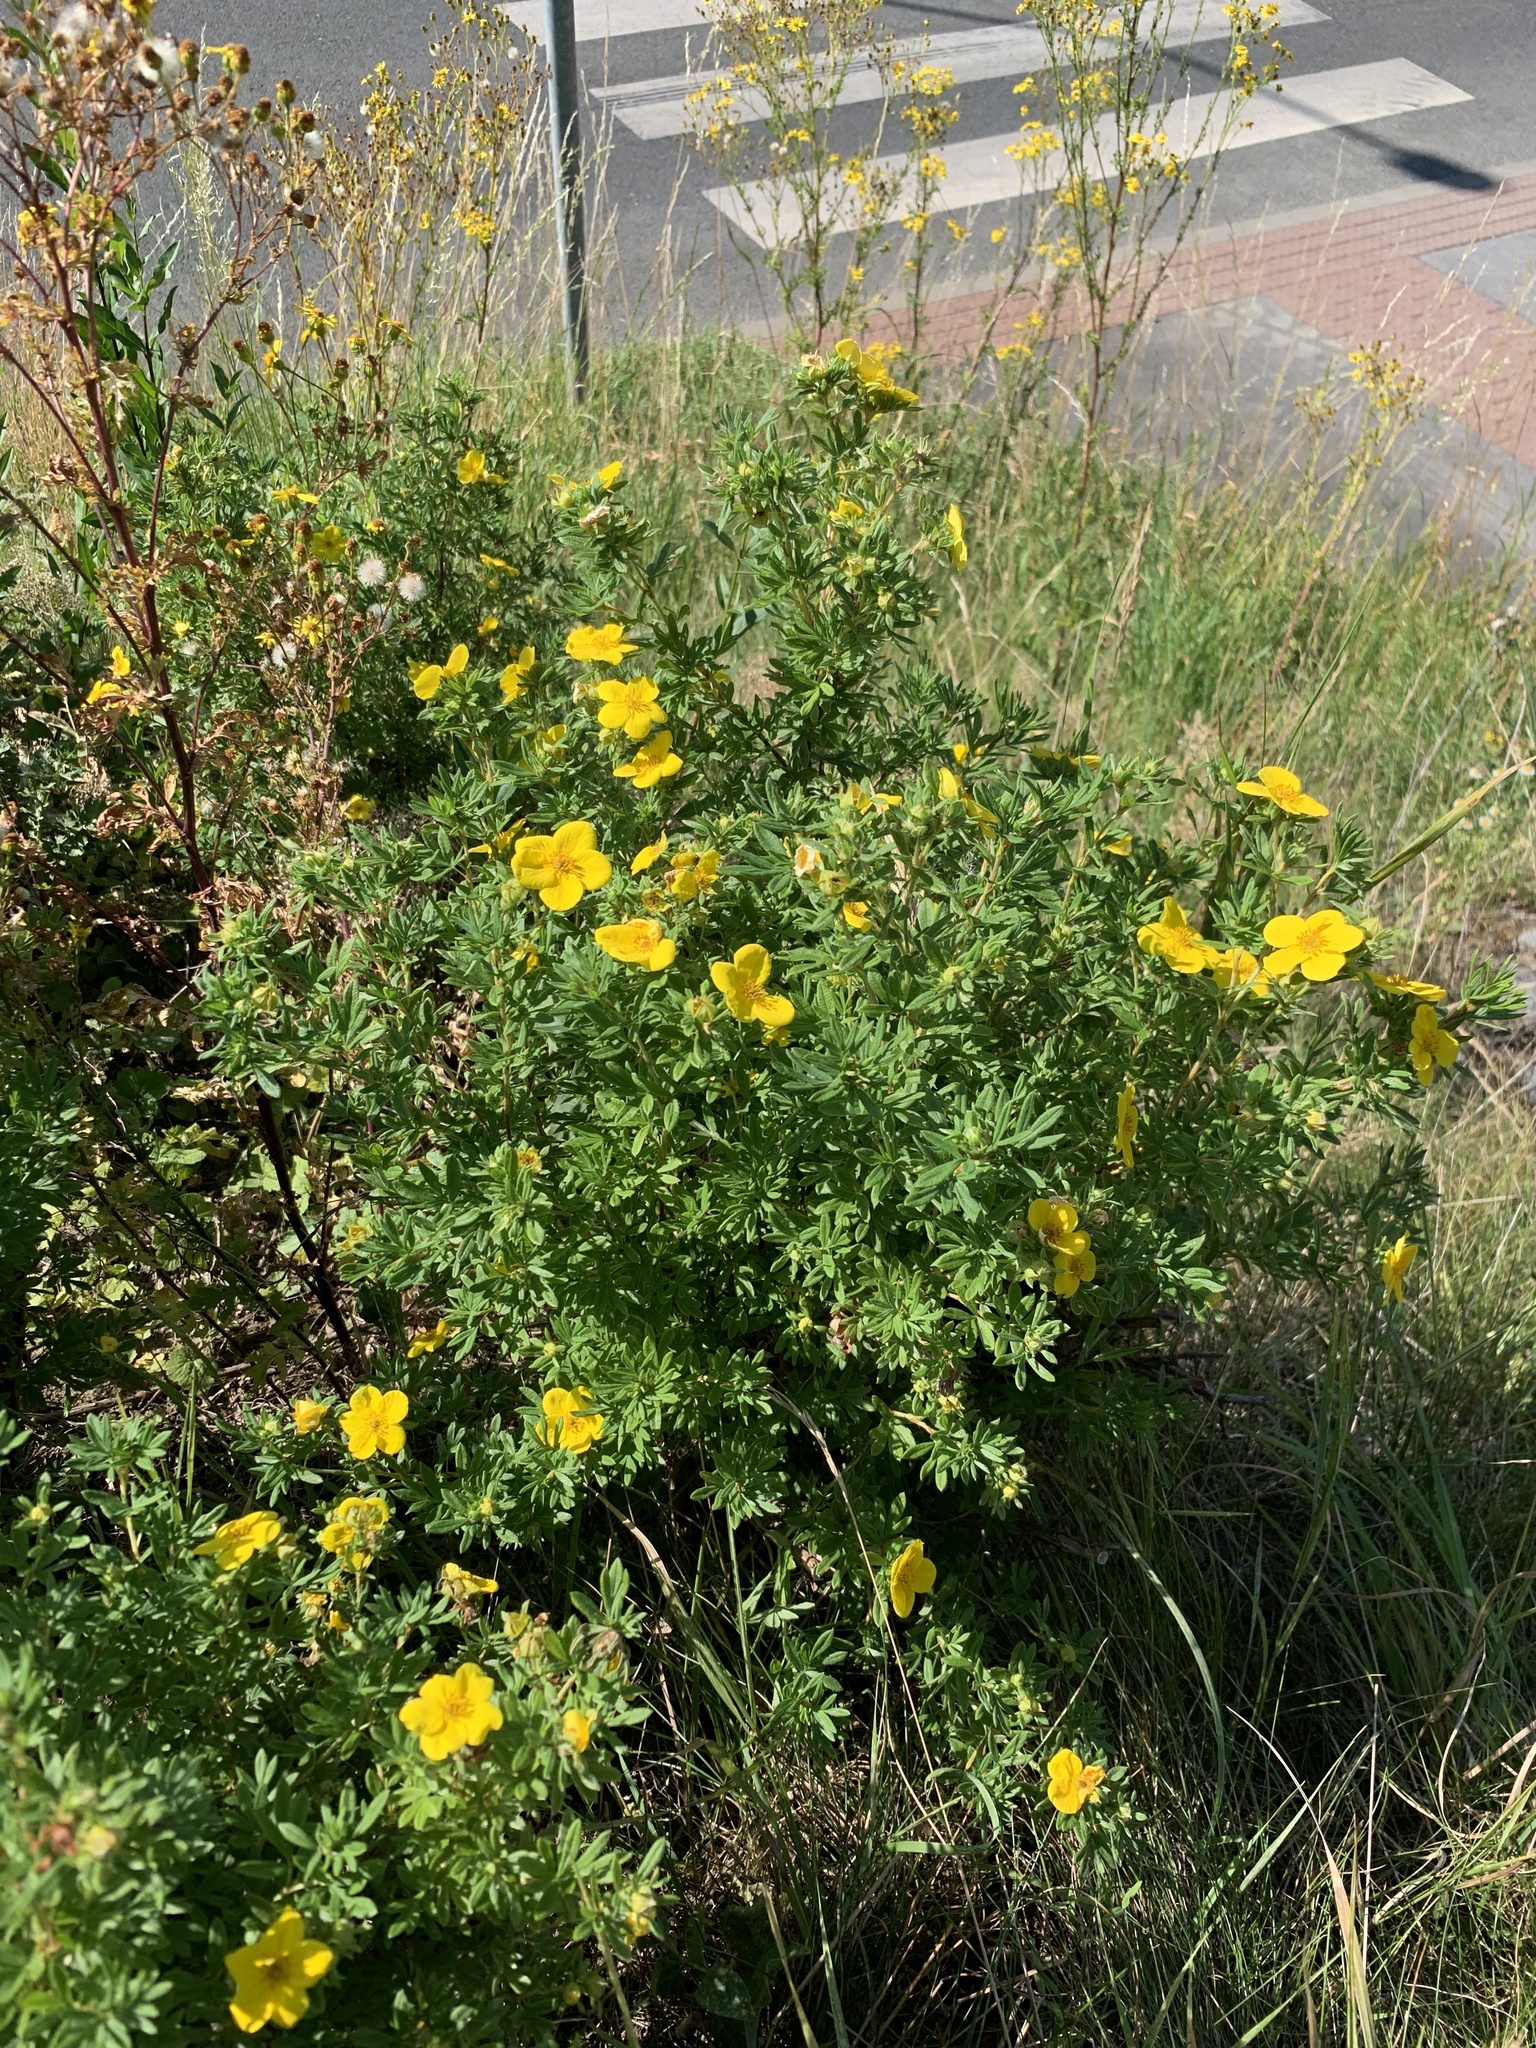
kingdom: Plantae
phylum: Tracheophyta
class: Magnoliopsida
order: Rosales
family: Rosaceae
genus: Dasiphora
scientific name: Dasiphora fruticosa
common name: Shrubby cinquefoil
